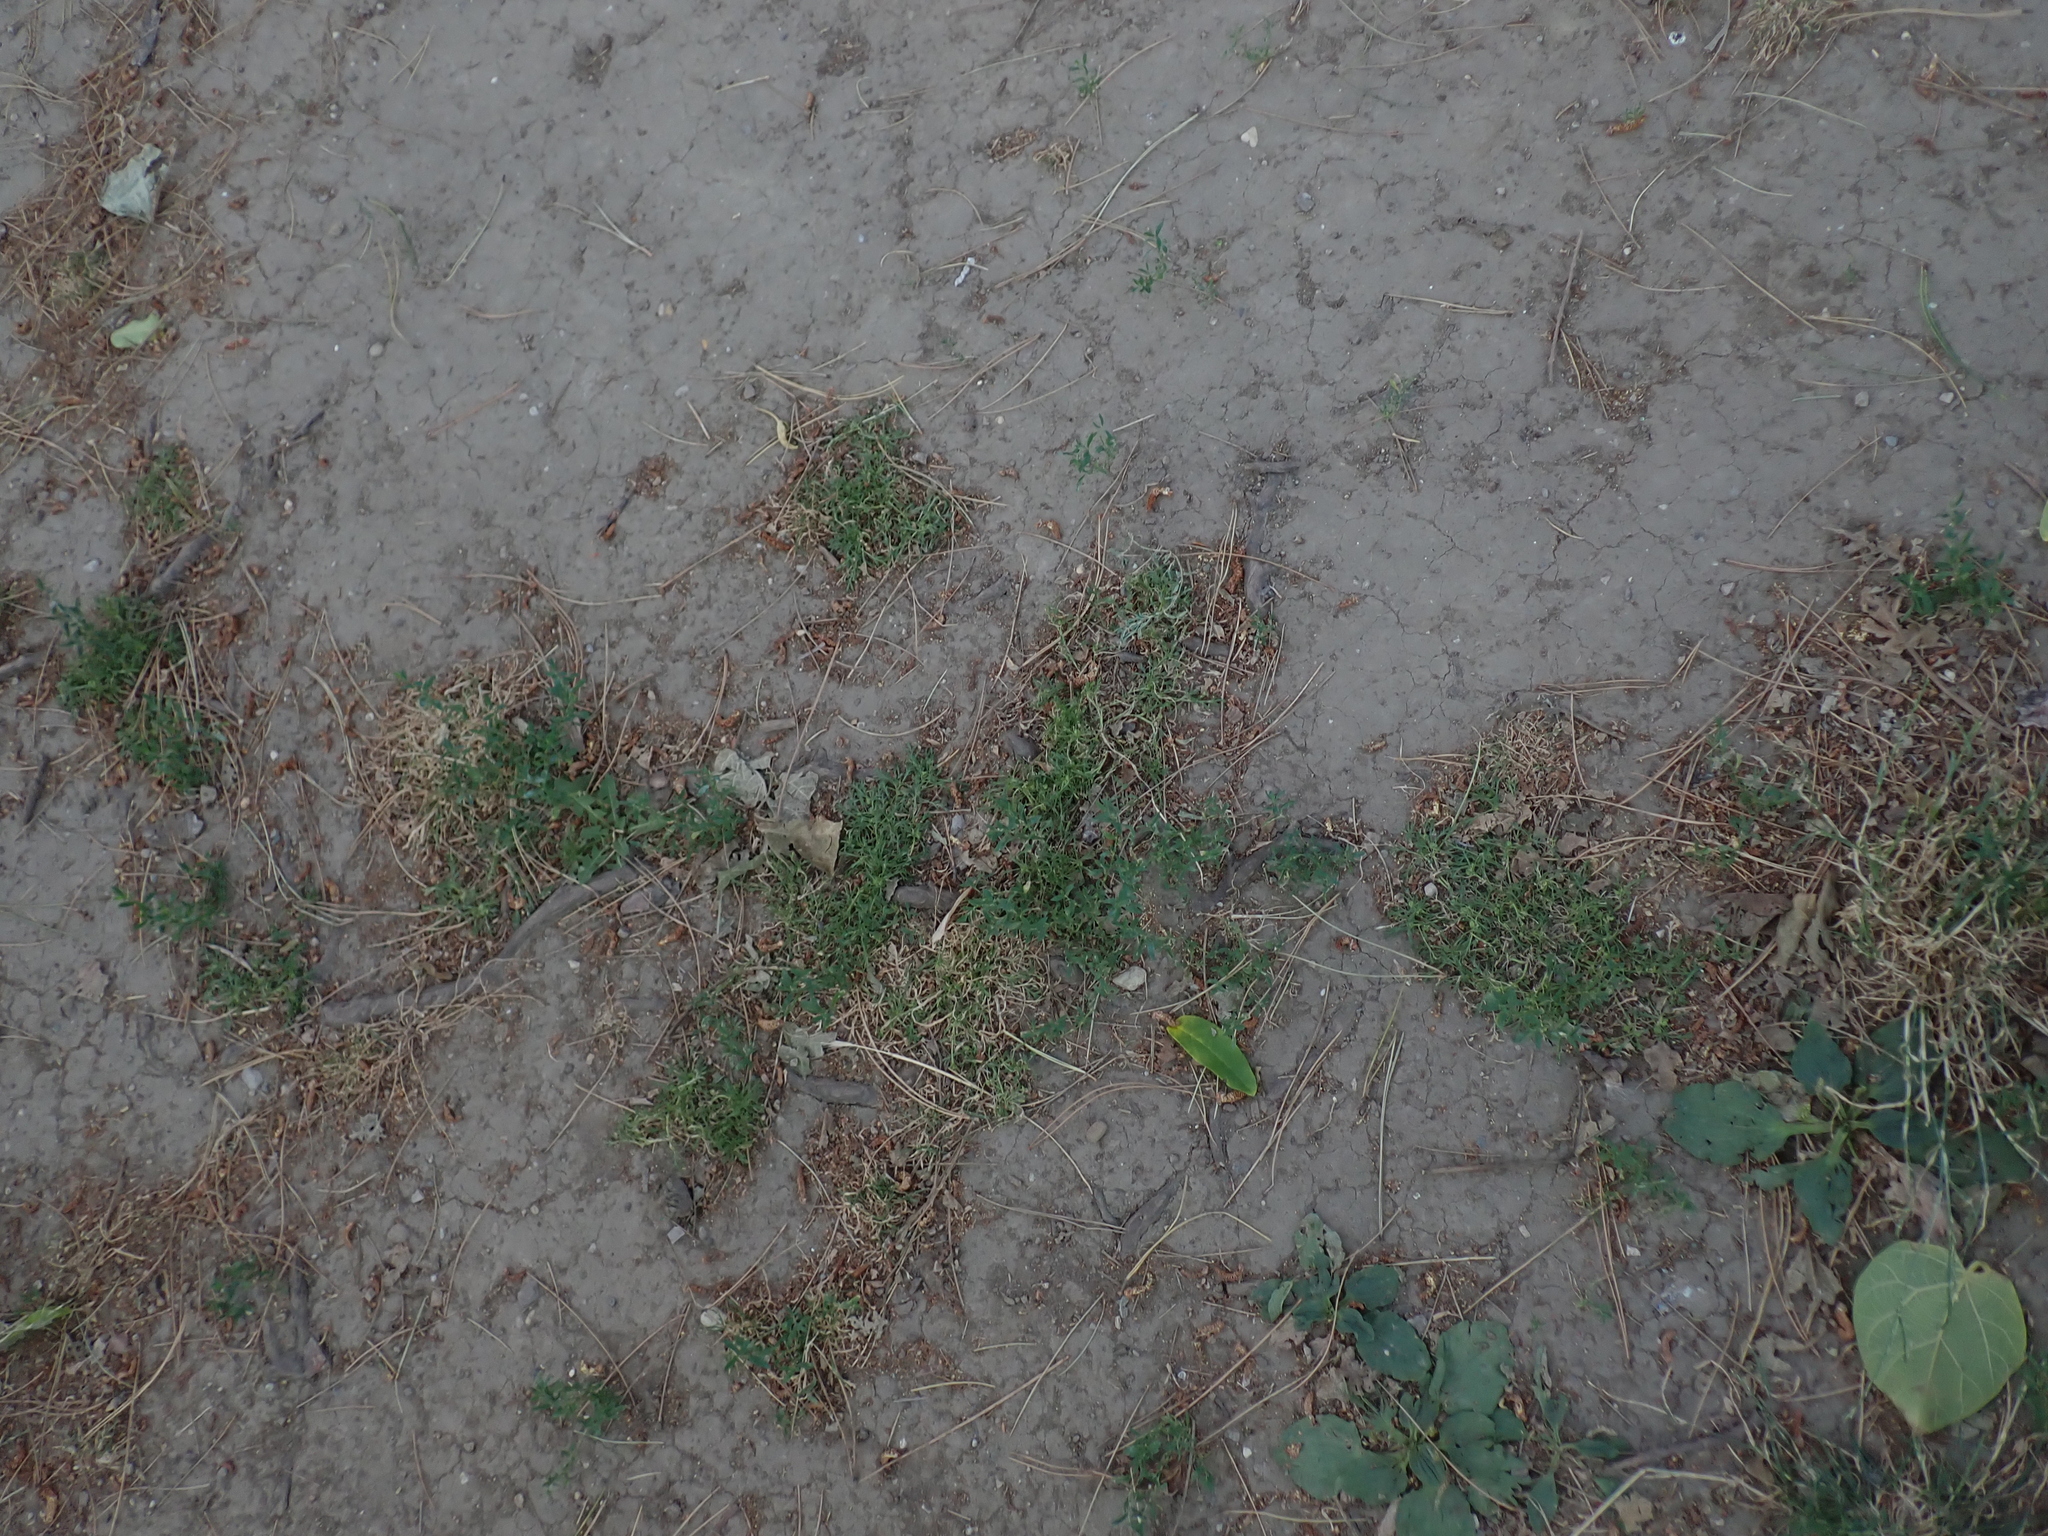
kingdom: Plantae
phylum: Tracheophyta
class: Magnoliopsida
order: Brassicales
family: Brassicaceae
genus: Lepidium
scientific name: Lepidium coronopus
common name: Greater swinecress
